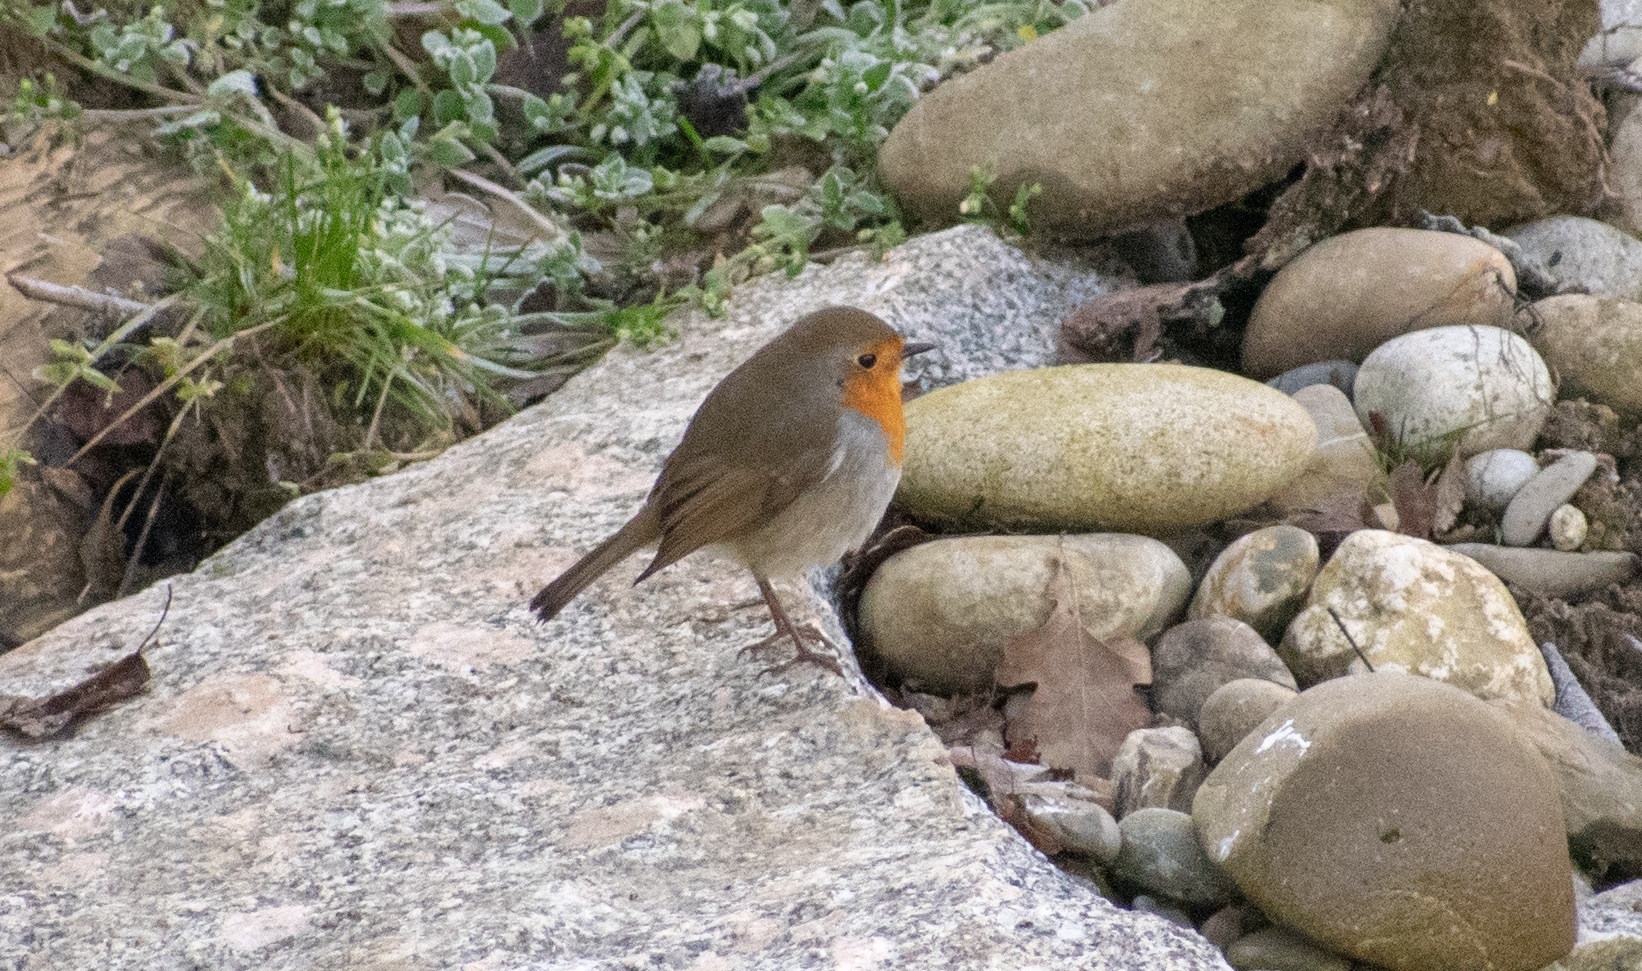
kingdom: Animalia
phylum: Chordata
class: Aves
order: Passeriformes
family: Muscicapidae
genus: Erithacus
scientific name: Erithacus rubecula
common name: European robin
